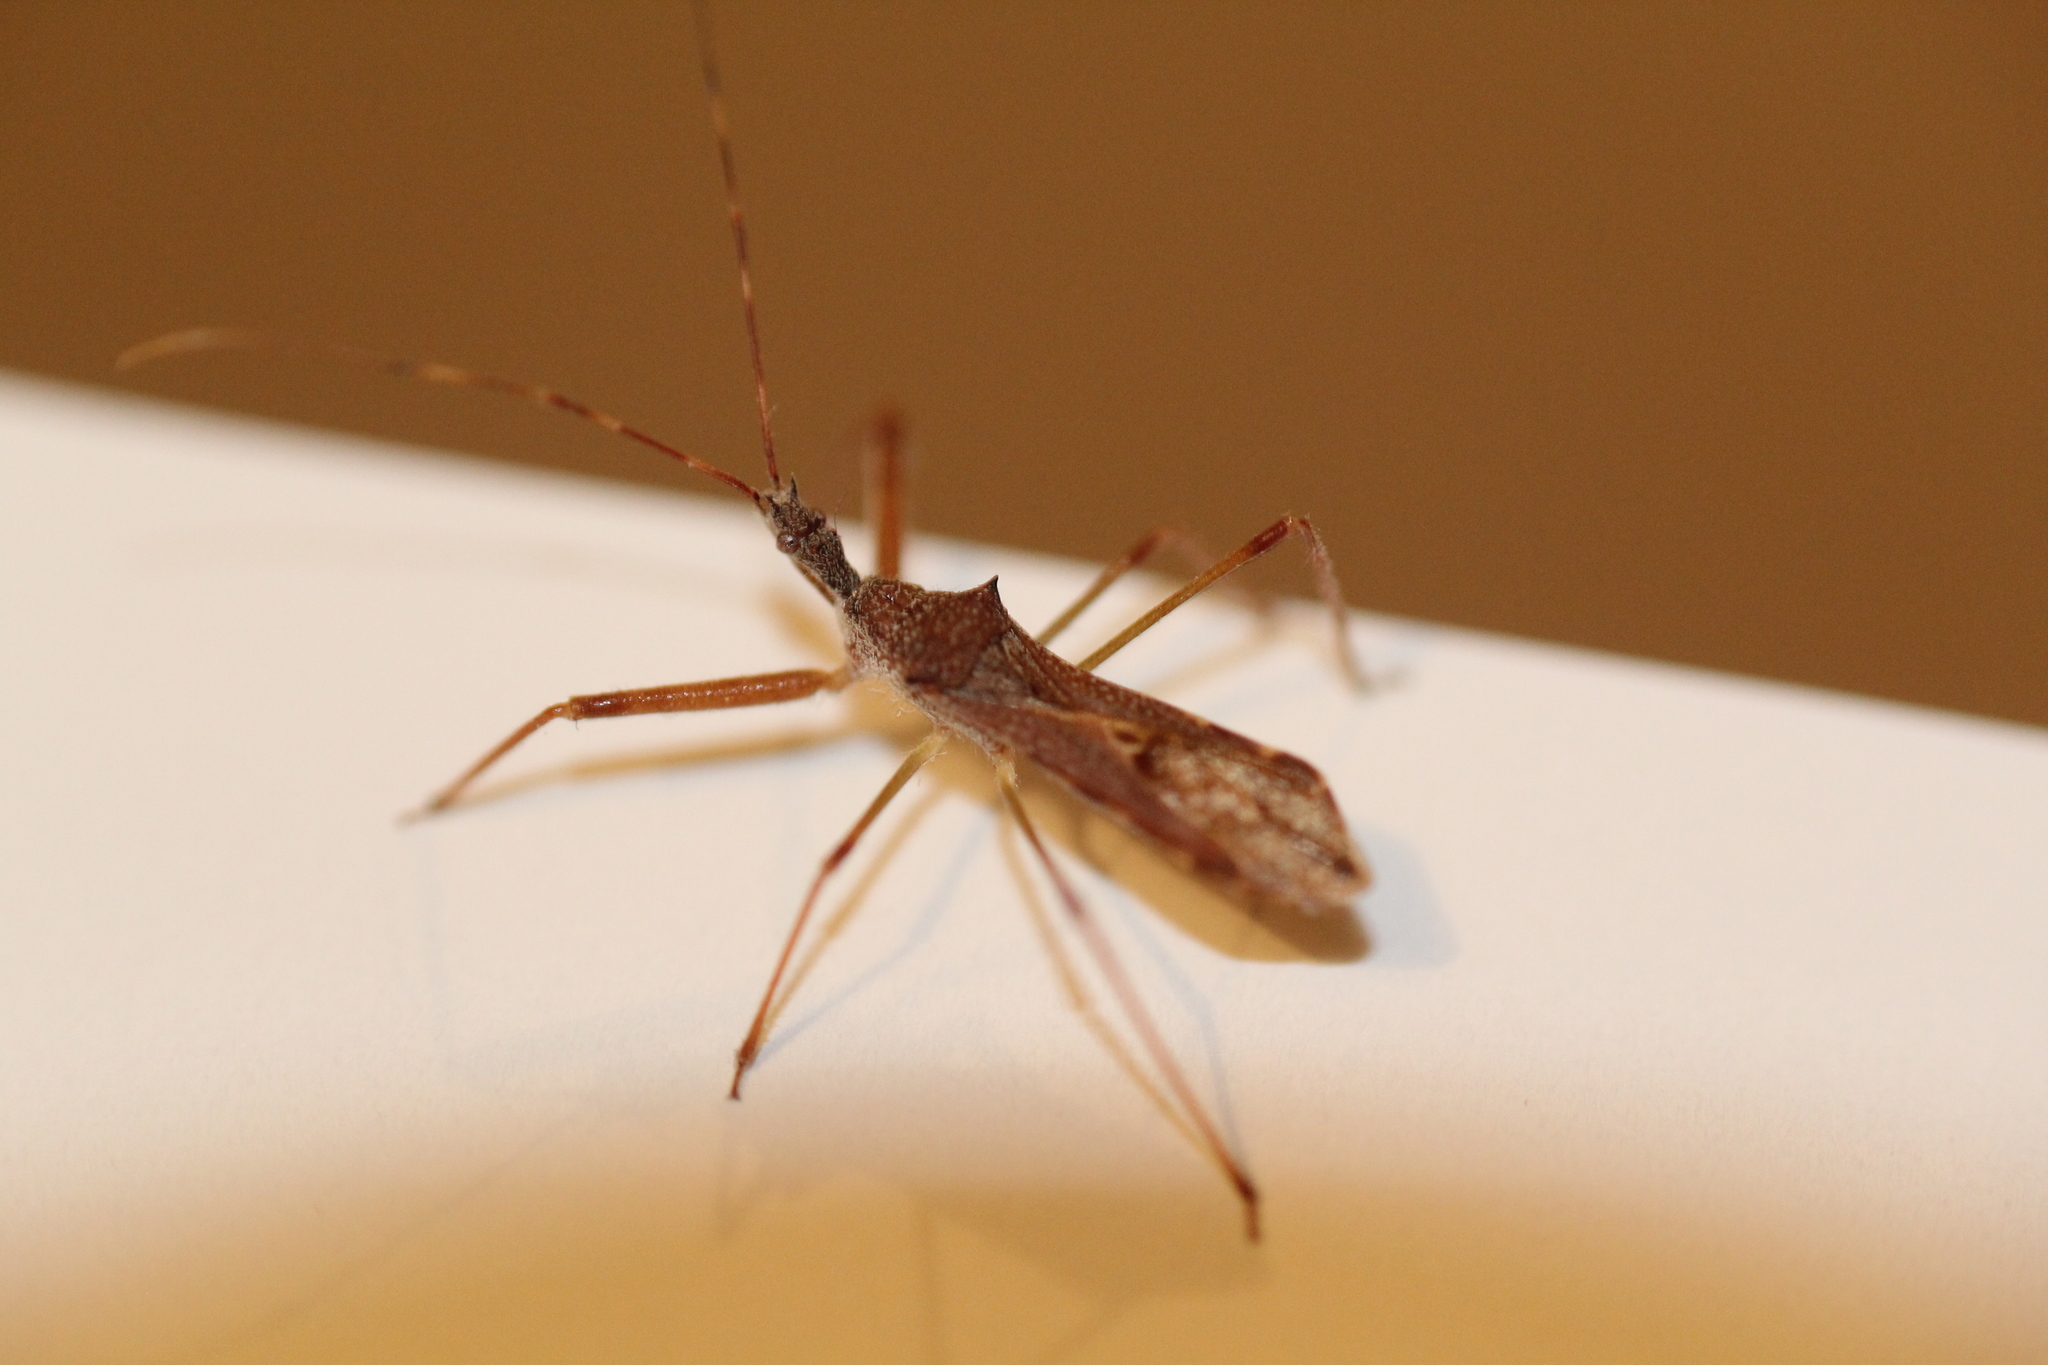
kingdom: Animalia
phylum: Arthropoda
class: Insecta
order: Hemiptera
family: Reduviidae
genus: Nagusta
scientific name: Nagusta goedelii
